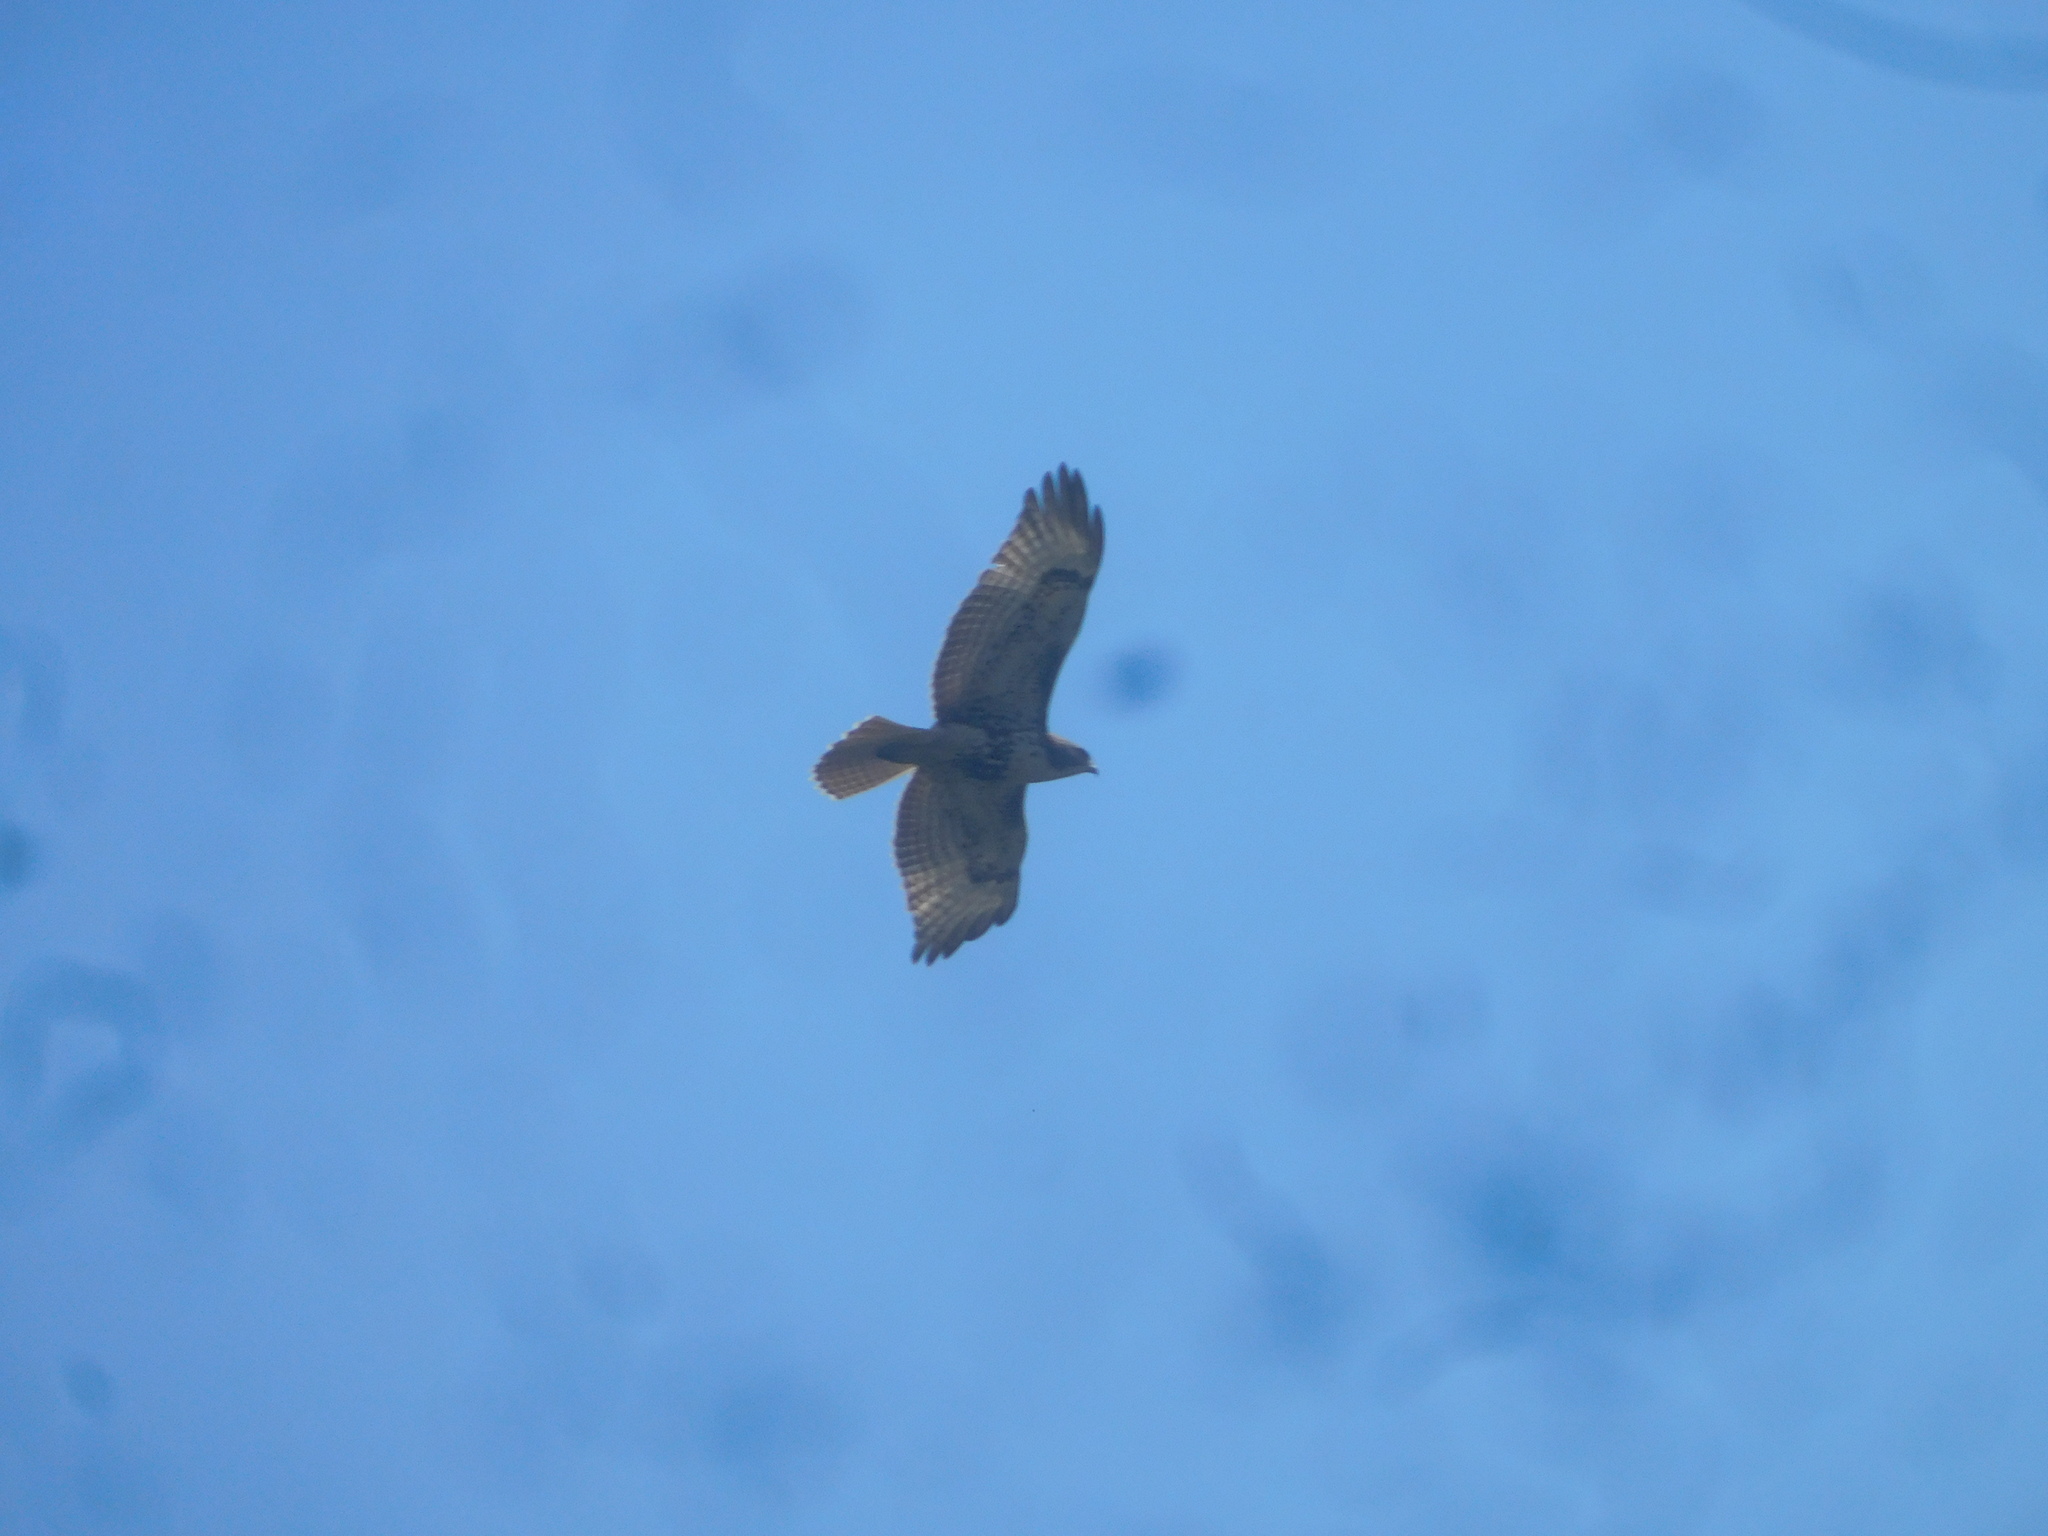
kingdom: Animalia
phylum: Chordata
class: Aves
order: Accipitriformes
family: Accipitridae
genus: Buteo
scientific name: Buteo jamaicensis
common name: Red-tailed hawk
